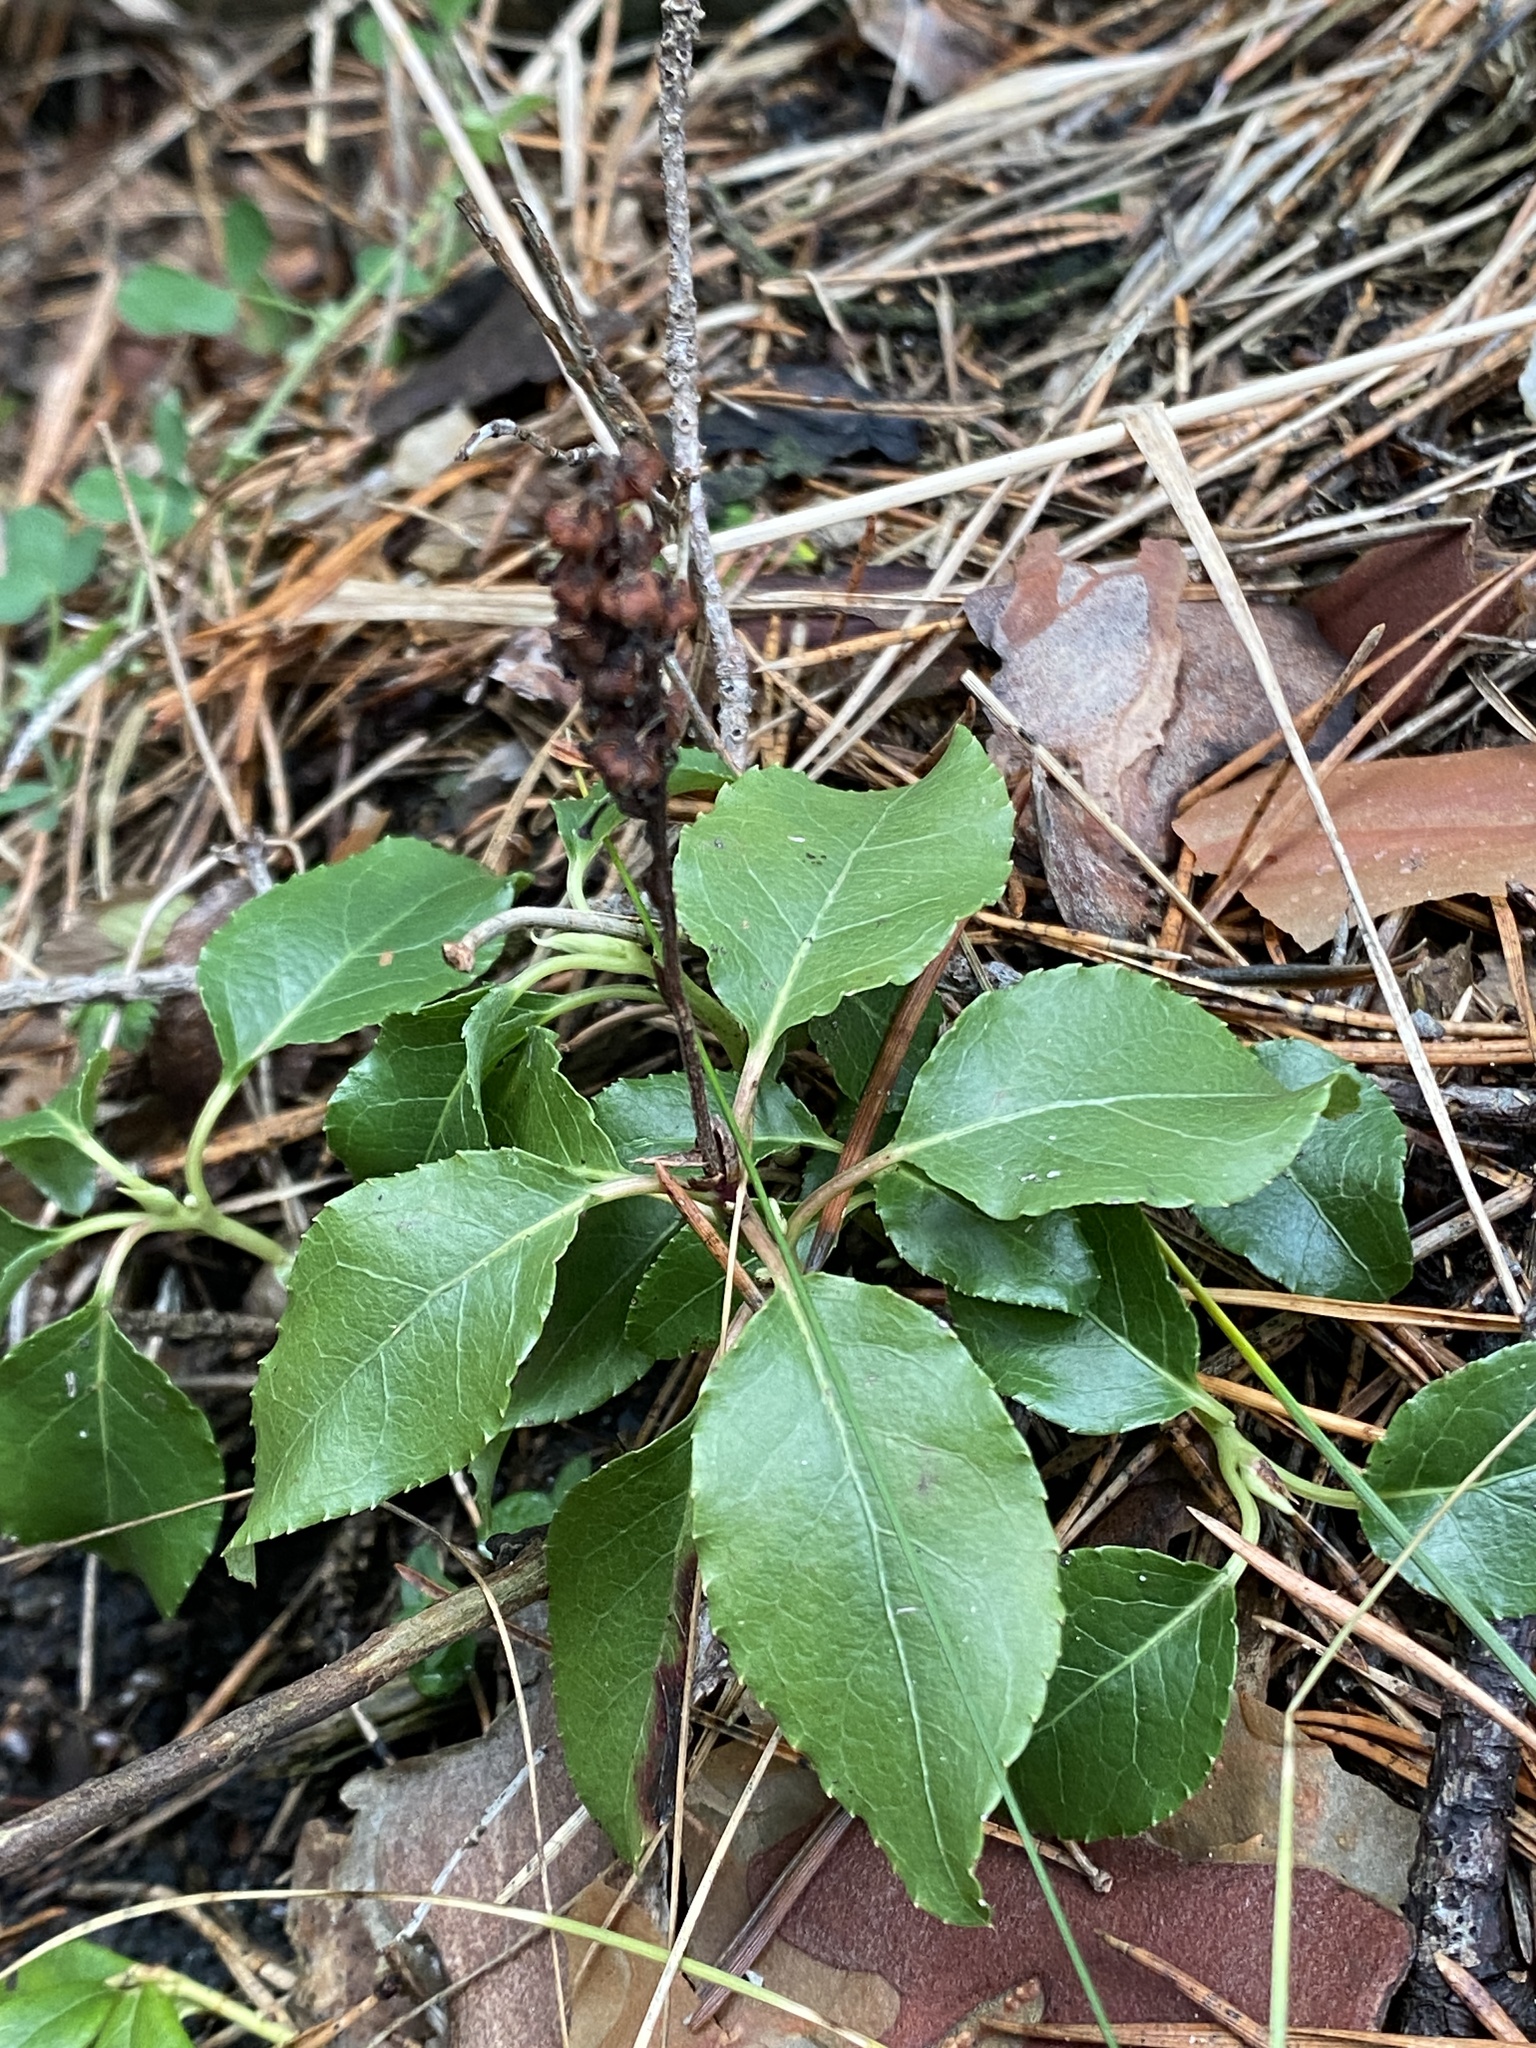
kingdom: Plantae
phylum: Tracheophyta
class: Magnoliopsida
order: Ericales
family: Ericaceae
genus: Orthilia
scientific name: Orthilia secunda
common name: One-sided orthilia
